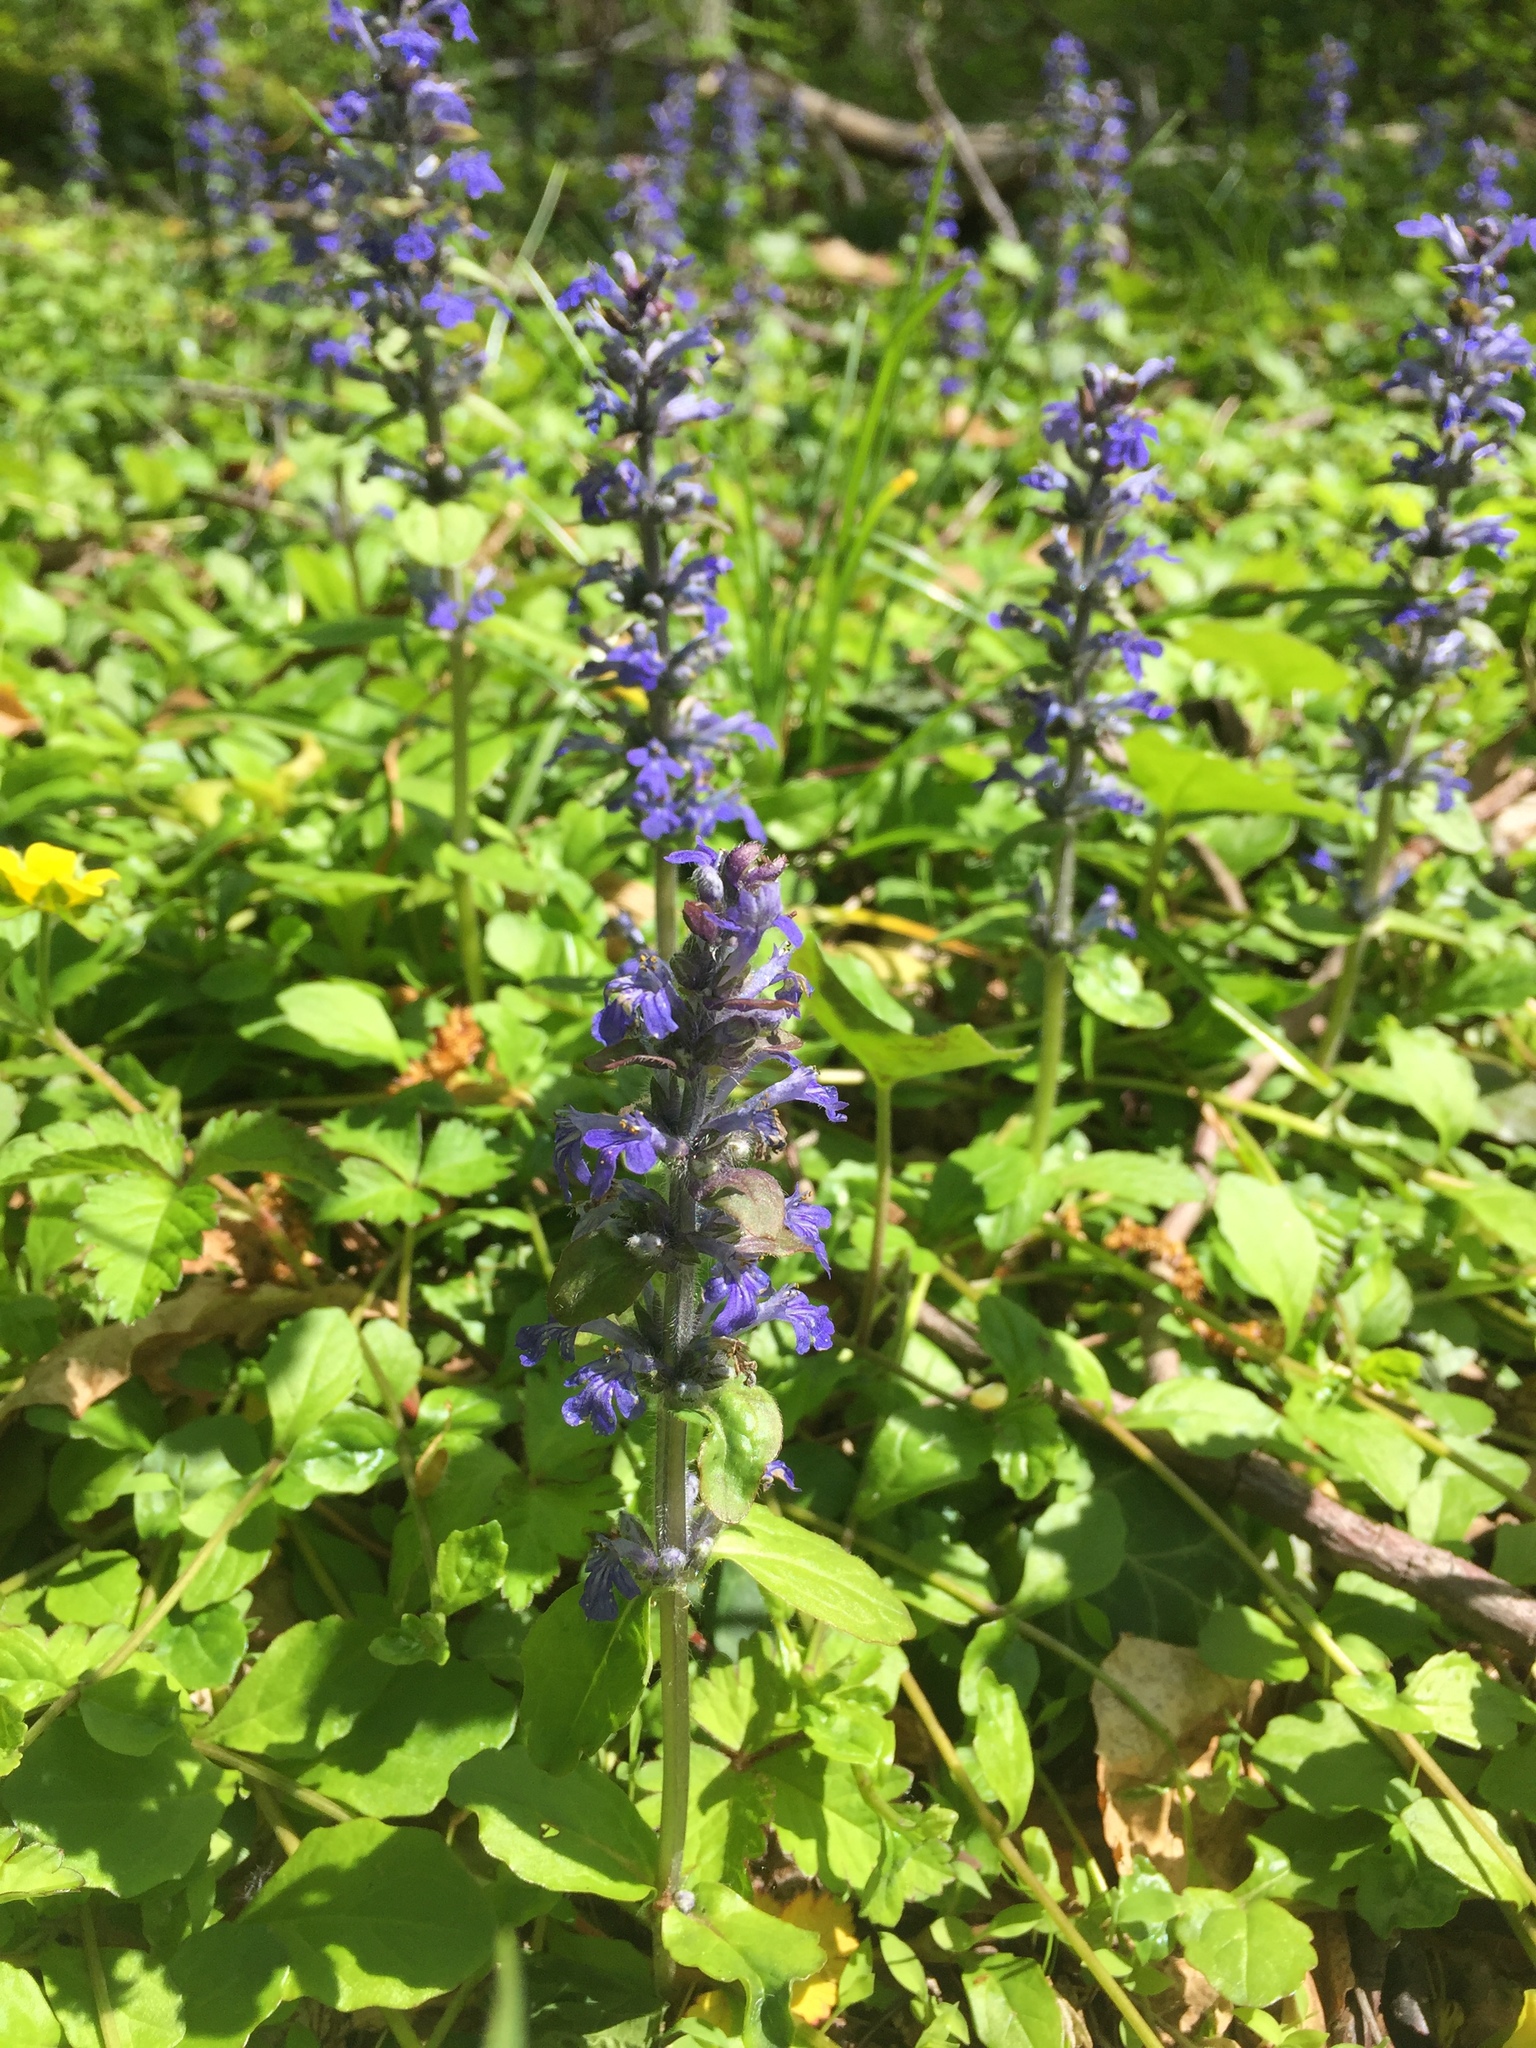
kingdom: Plantae
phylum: Tracheophyta
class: Magnoliopsida
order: Lamiales
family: Lamiaceae
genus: Ajuga
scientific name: Ajuga reptans
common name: Bugle
